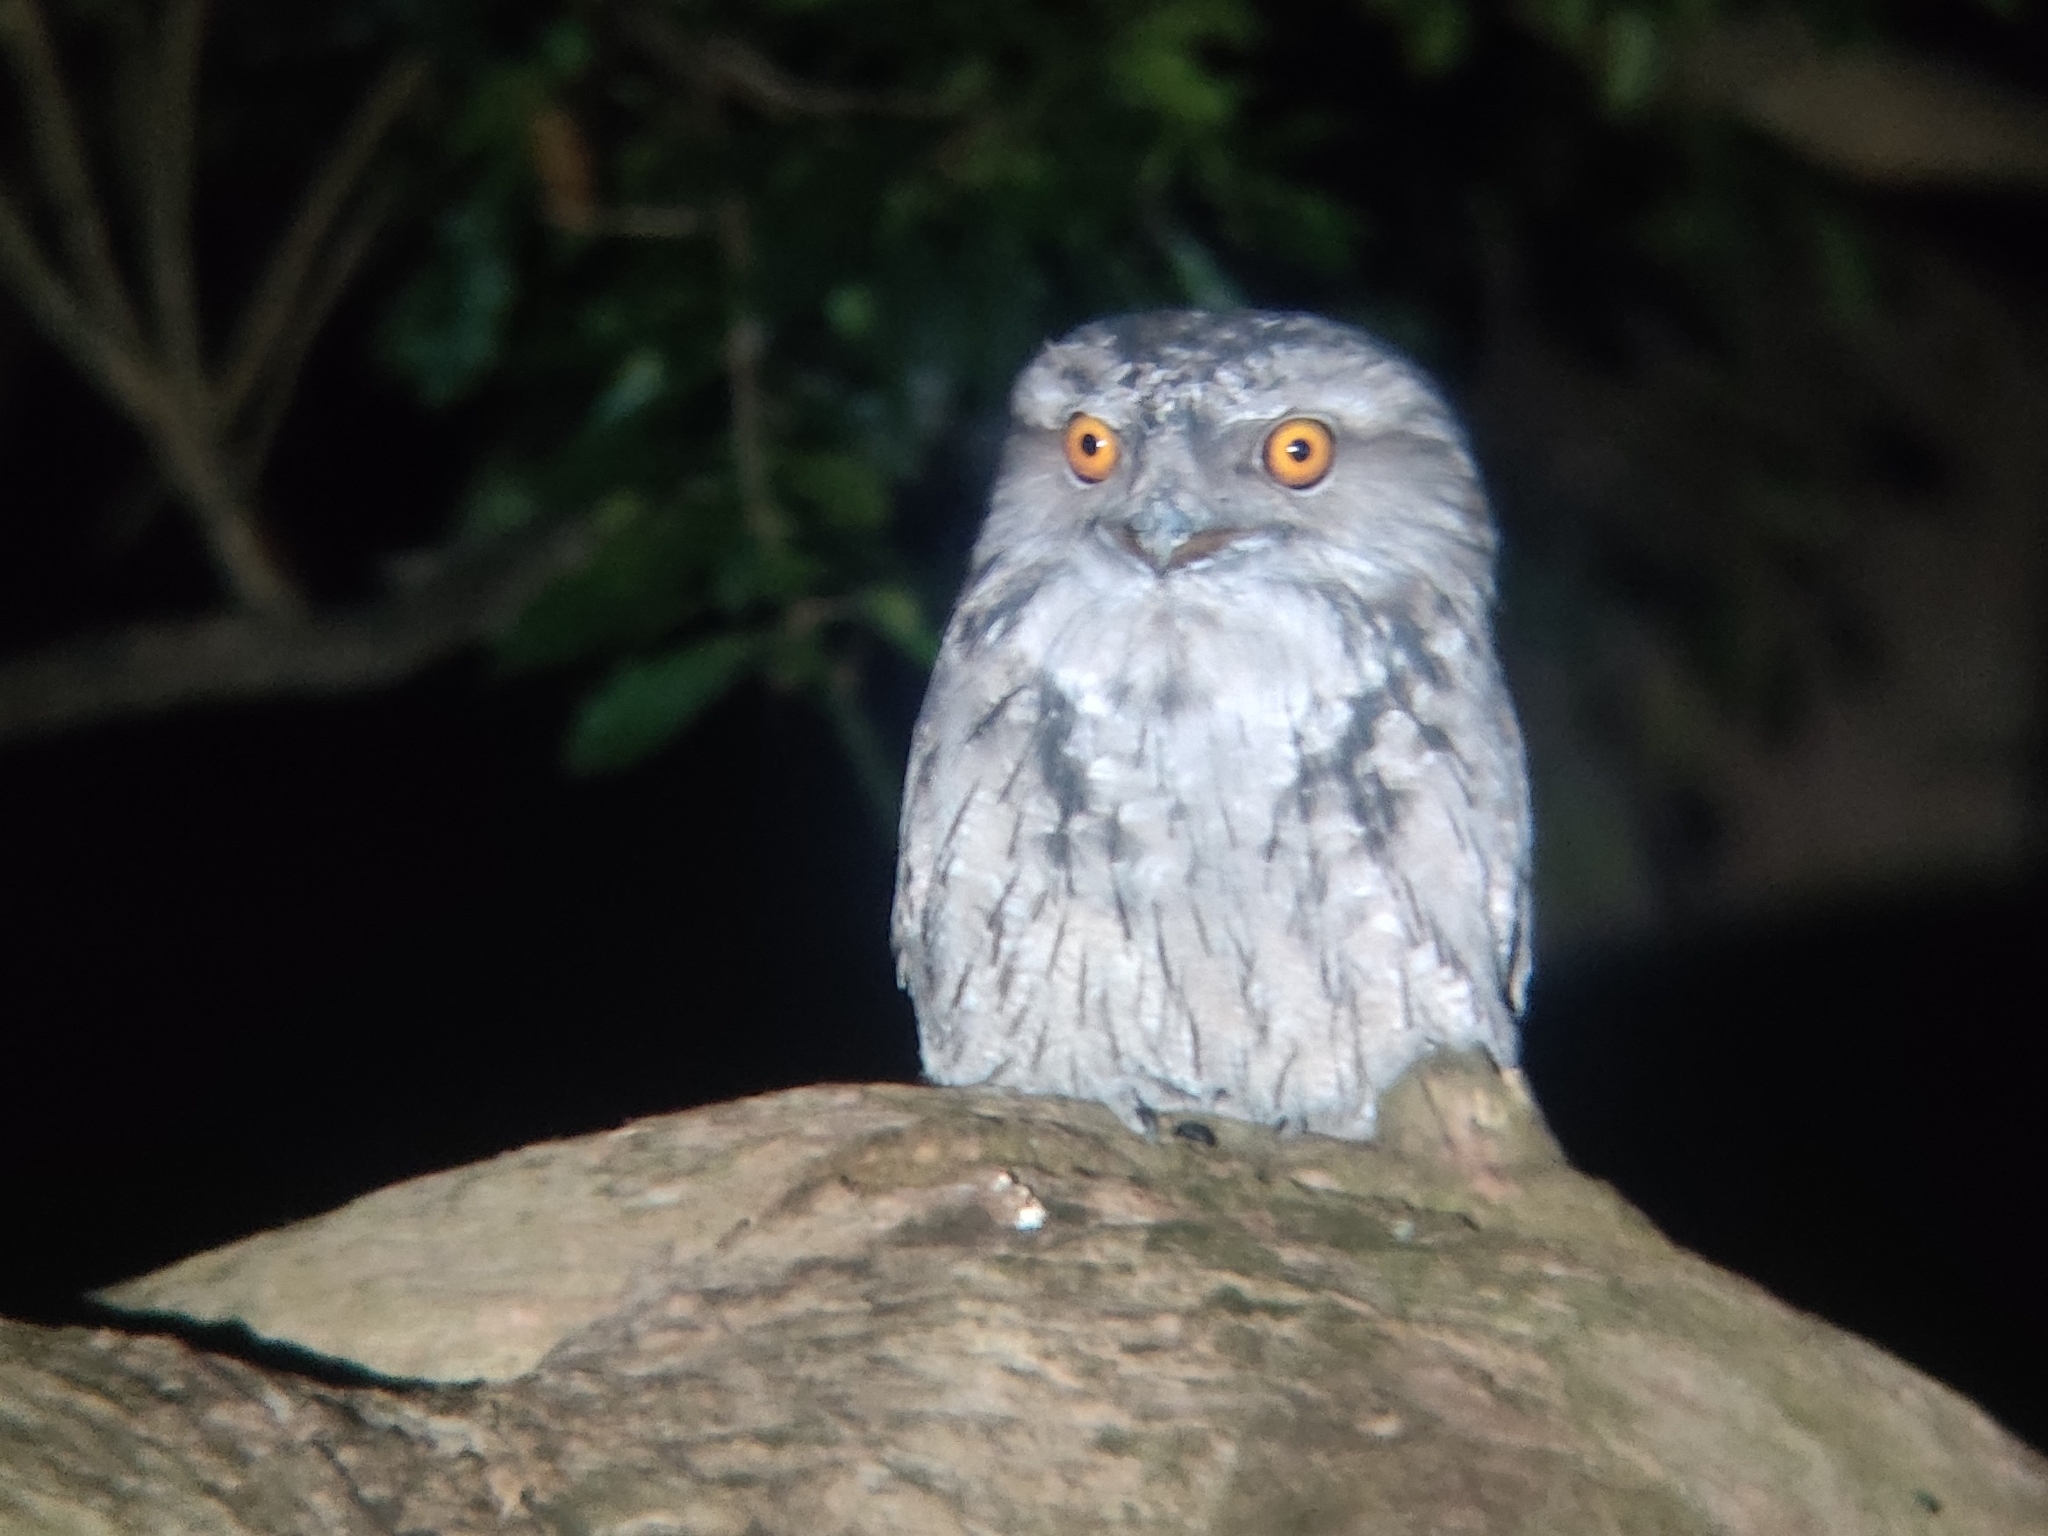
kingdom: Animalia
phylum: Chordata
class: Aves
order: Caprimulgiformes
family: Podargidae
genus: Podargus
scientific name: Podargus strigoides
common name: Tawny frogmouth
